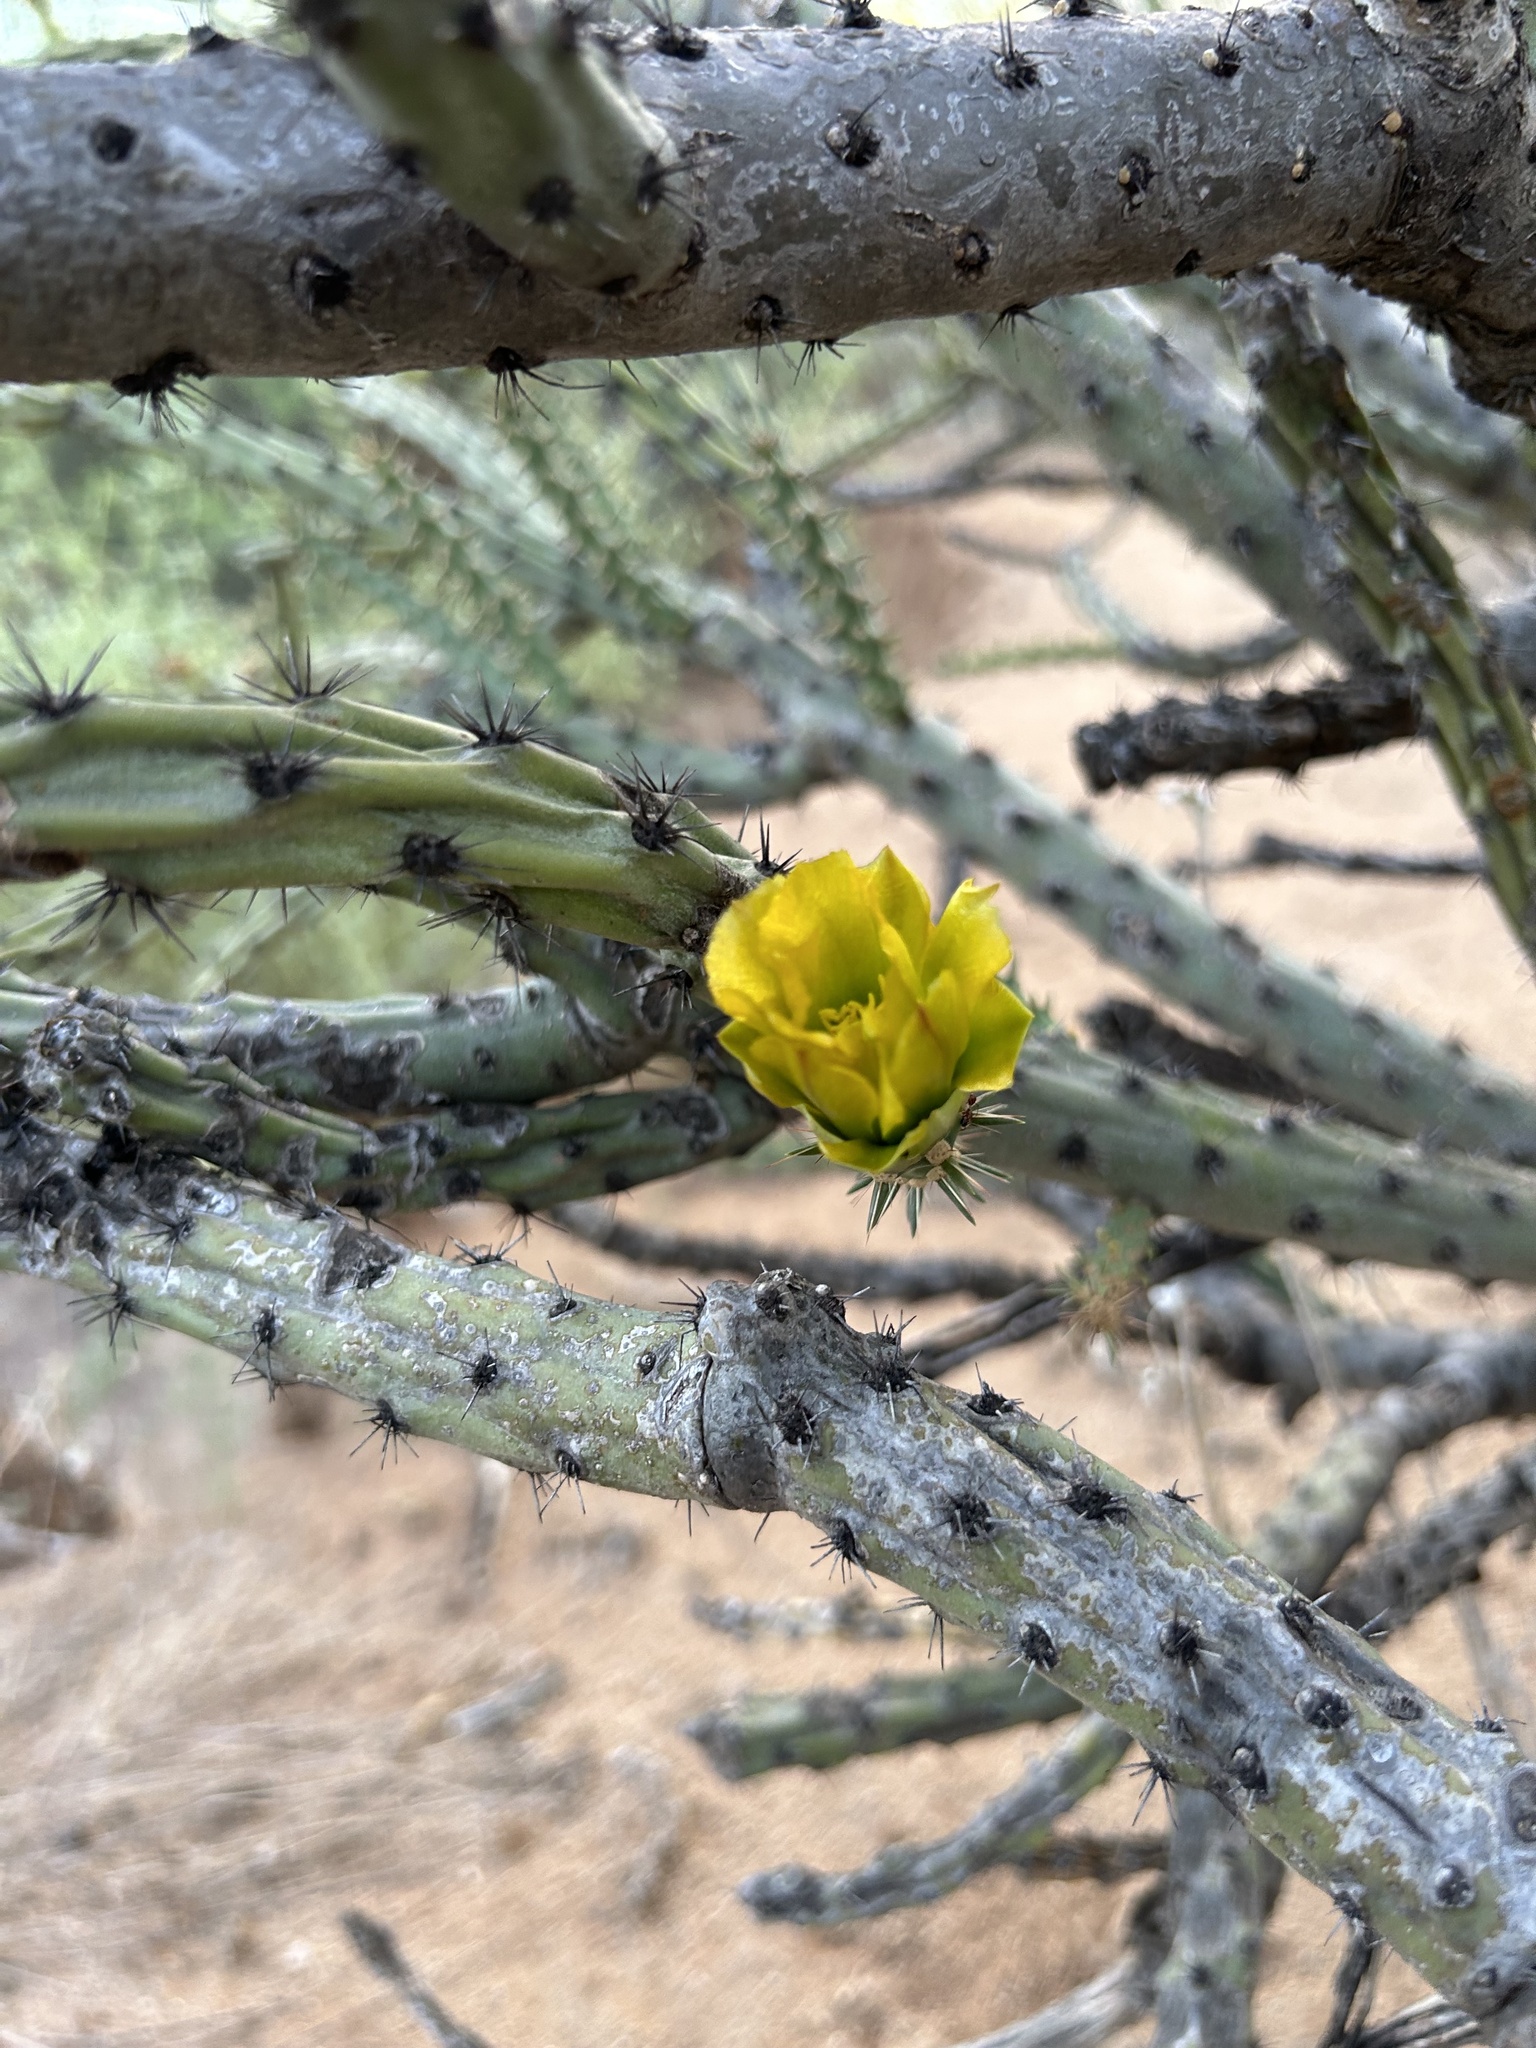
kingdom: Plantae
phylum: Tracheophyta
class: Magnoliopsida
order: Caryophyllales
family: Cactaceae
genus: Cylindropuntia
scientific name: Cylindropuntia thurberi
